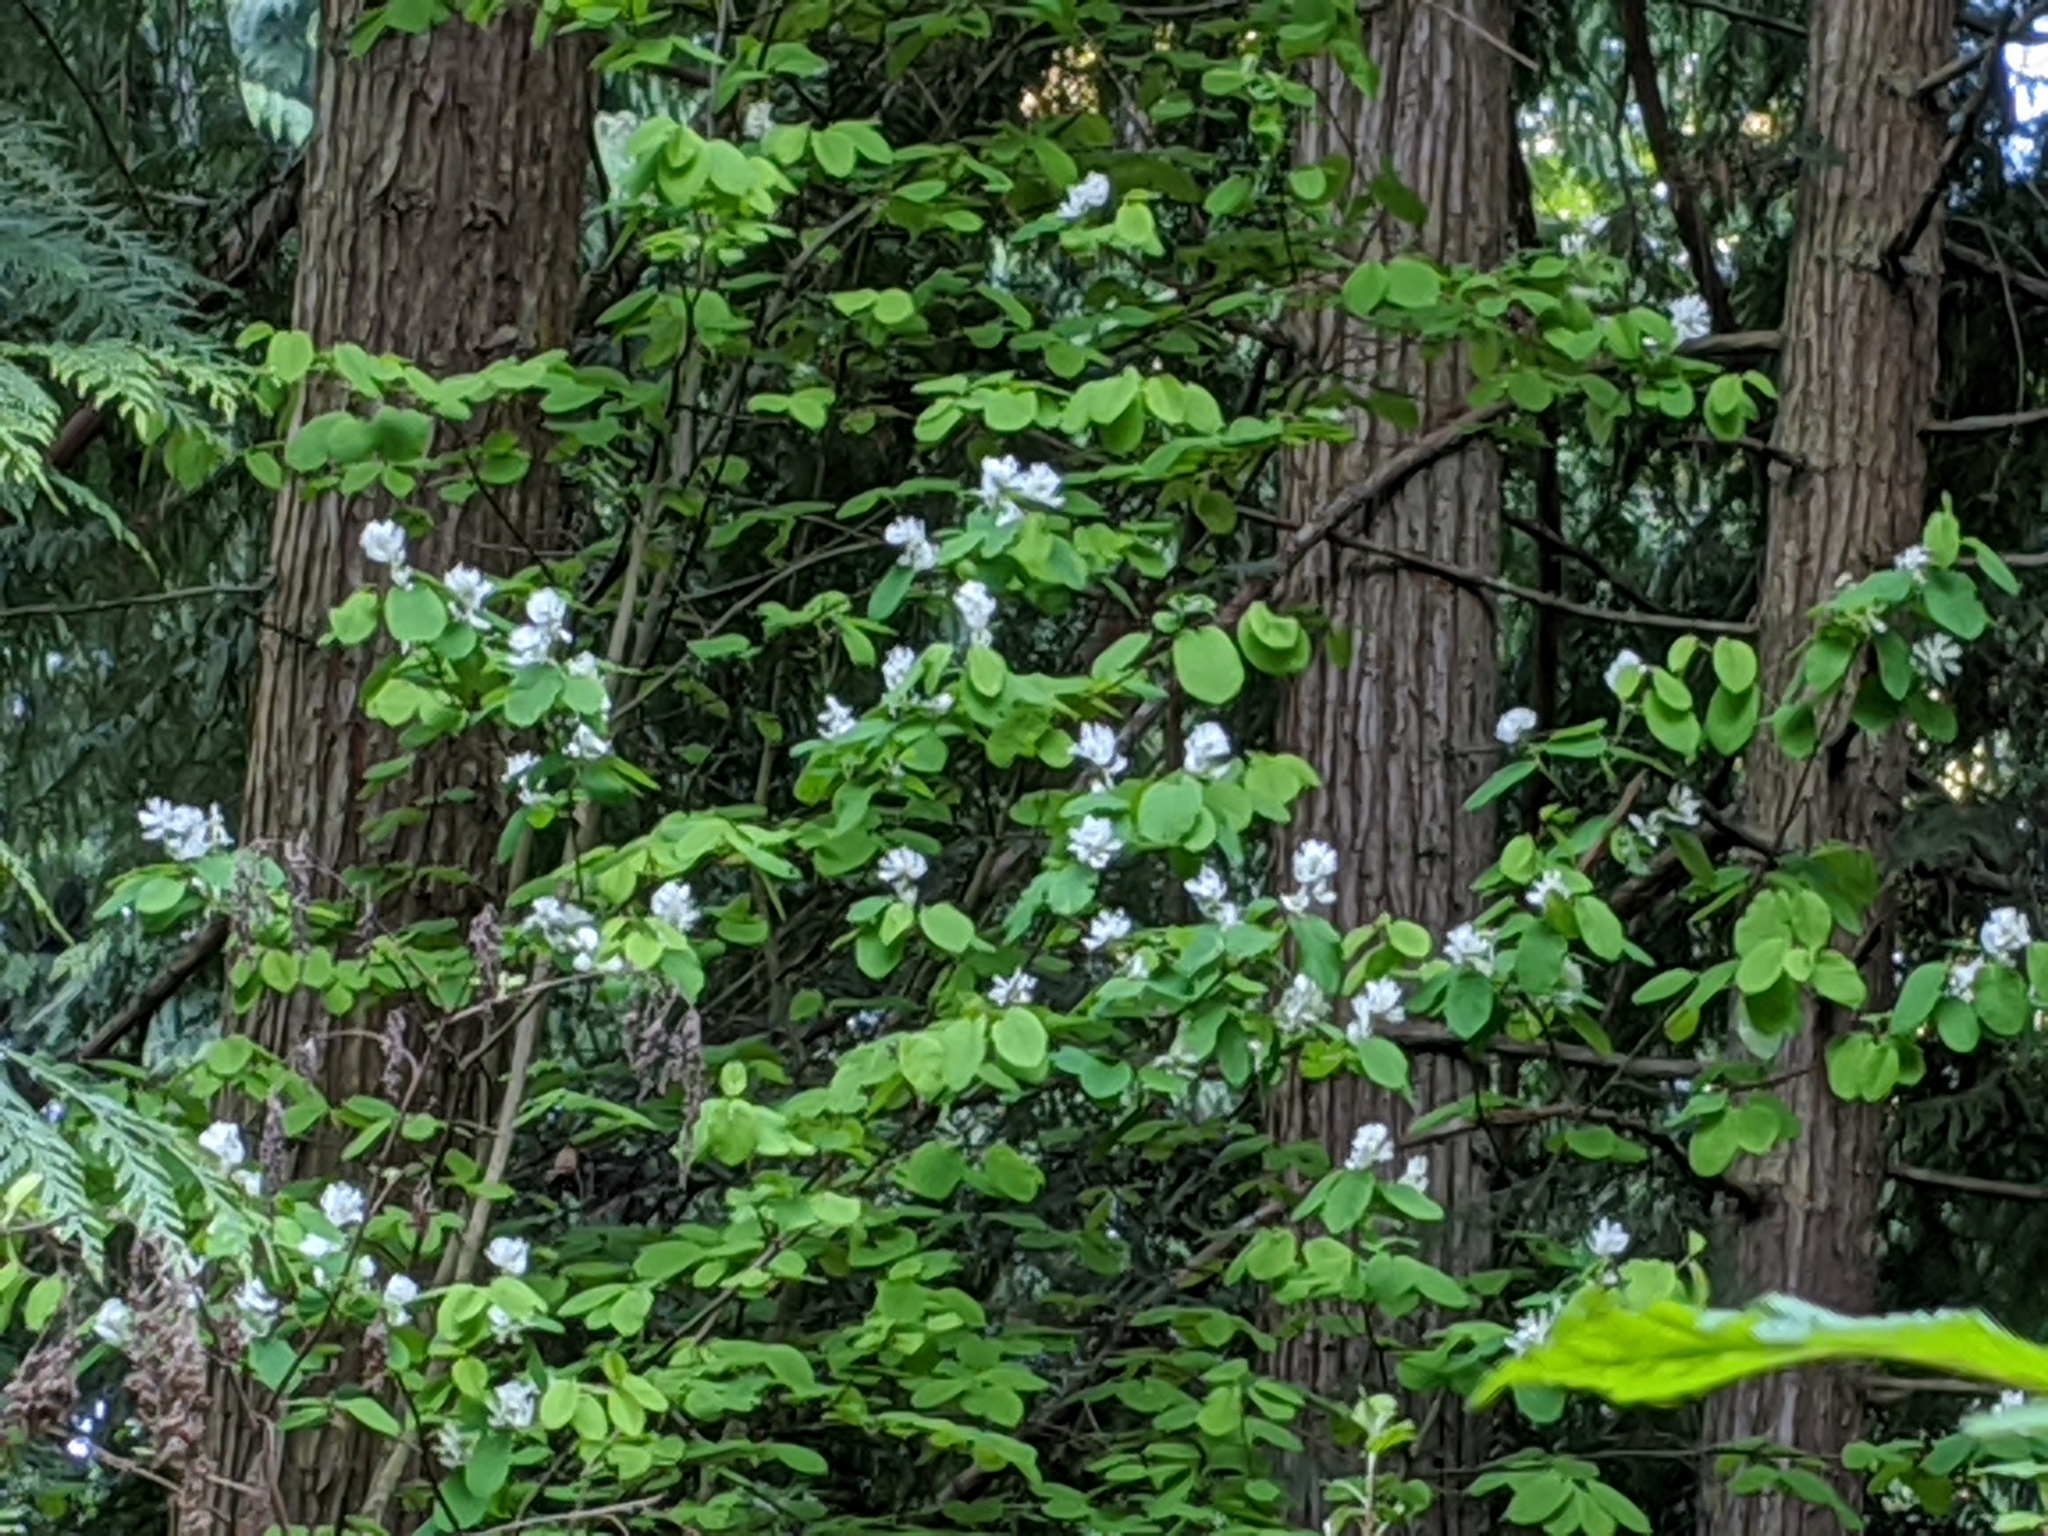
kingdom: Plantae
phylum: Tracheophyta
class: Magnoliopsida
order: Rosales
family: Rosaceae
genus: Amelanchier
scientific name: Amelanchier alnifolia
